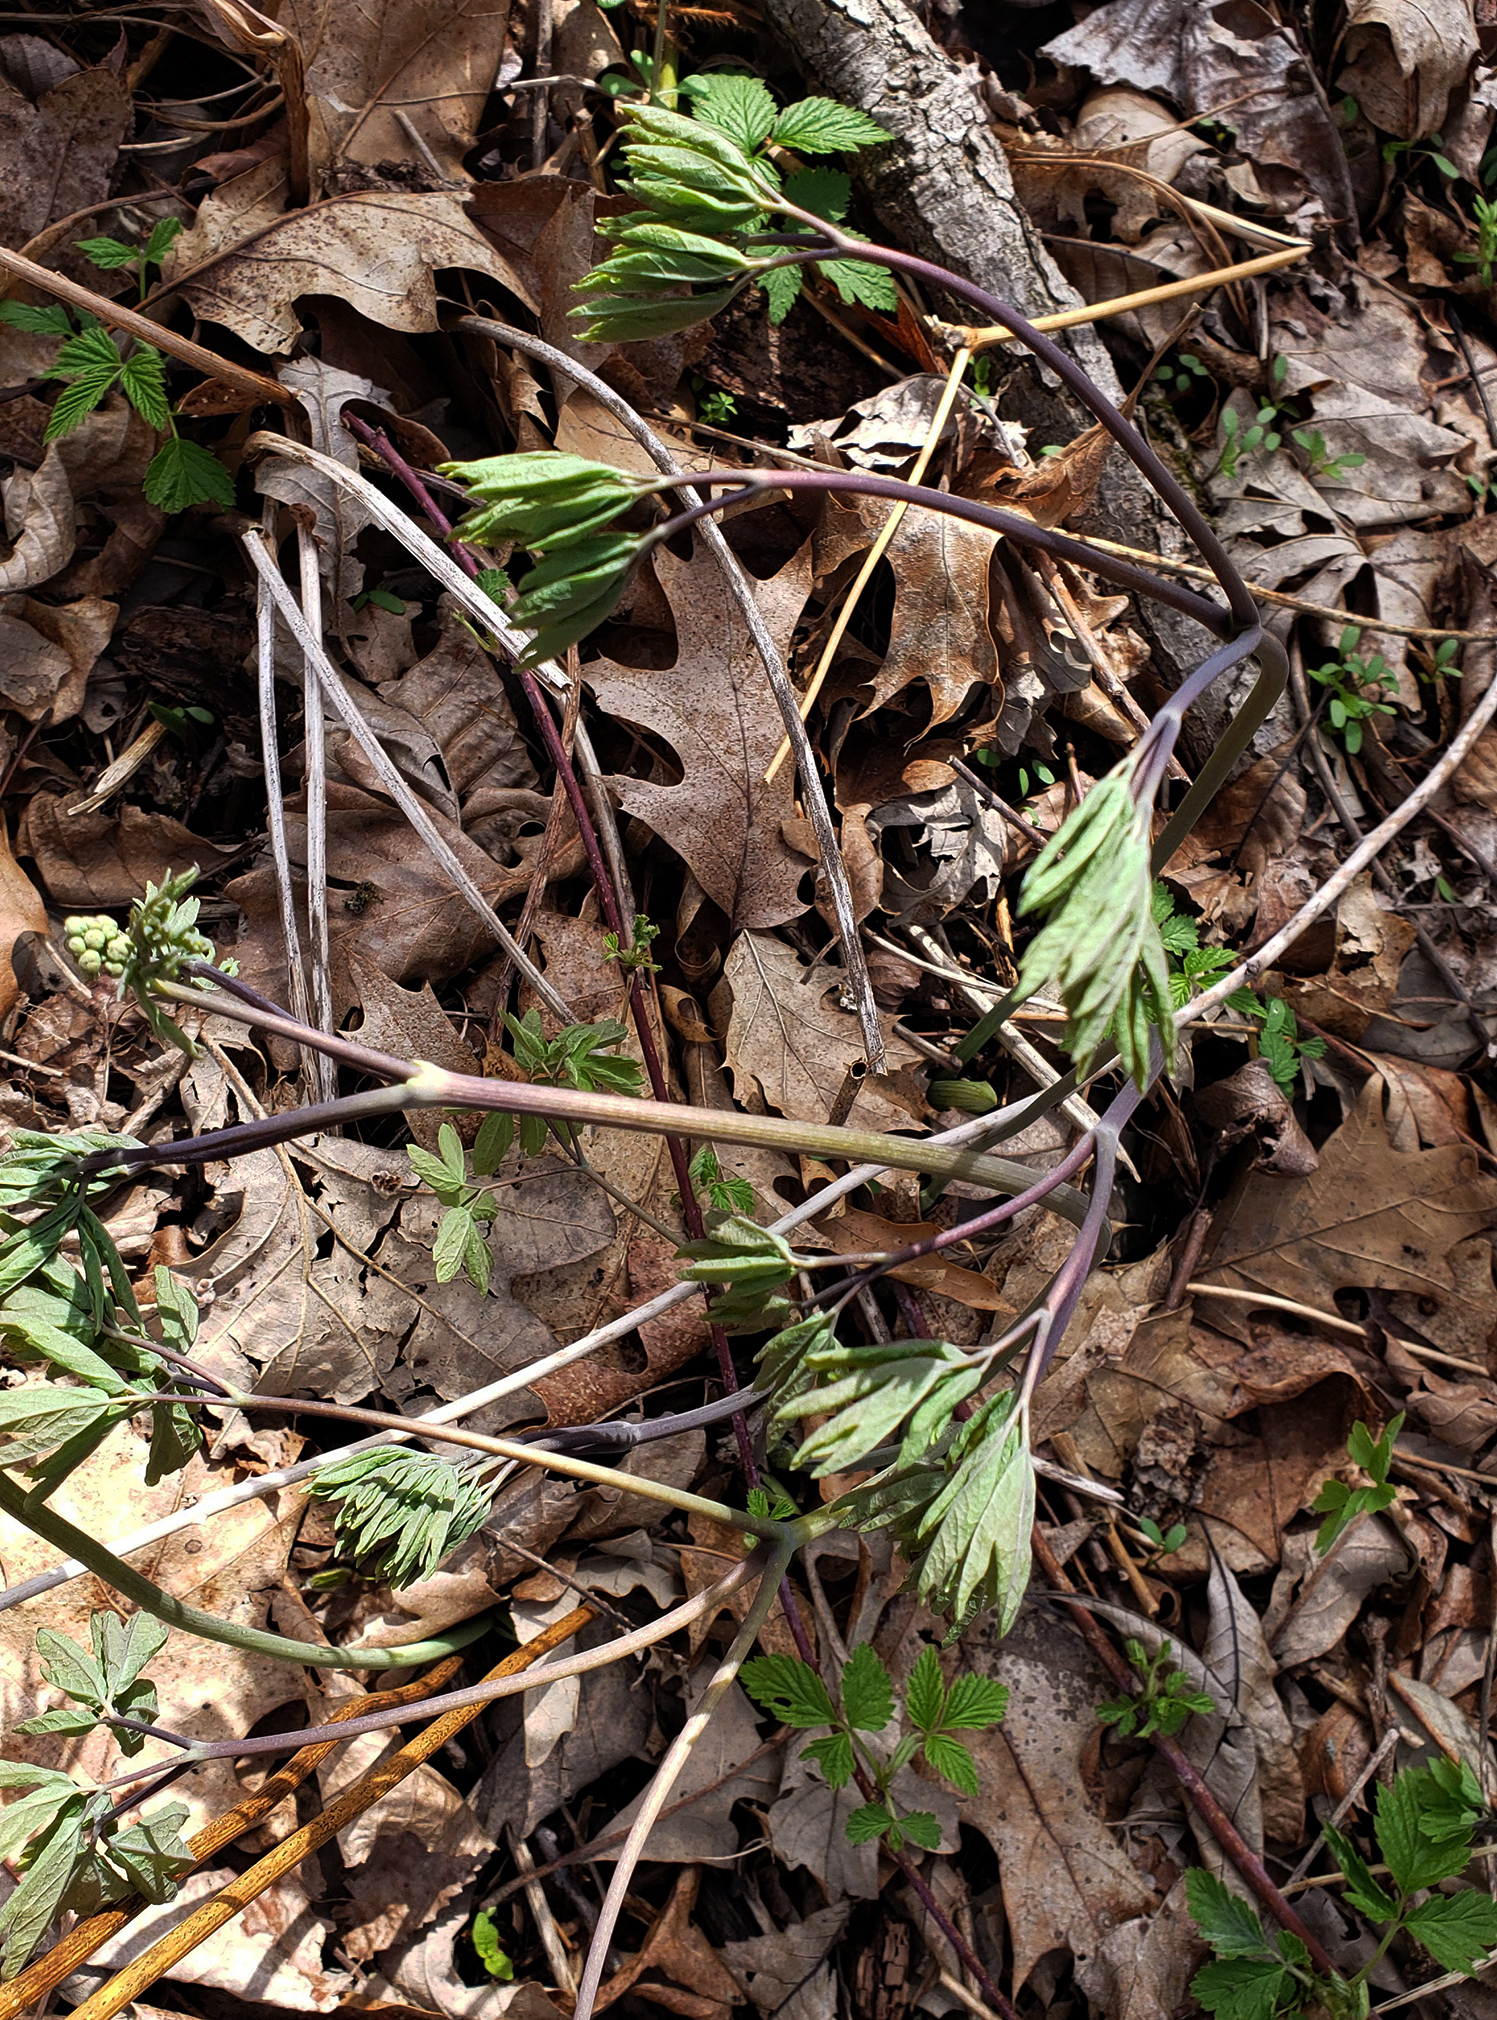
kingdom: Plantae
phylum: Tracheophyta
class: Magnoliopsida
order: Ranunculales
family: Berberidaceae
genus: Caulophyllum
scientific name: Caulophyllum thalictroides
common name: Blue cohosh
